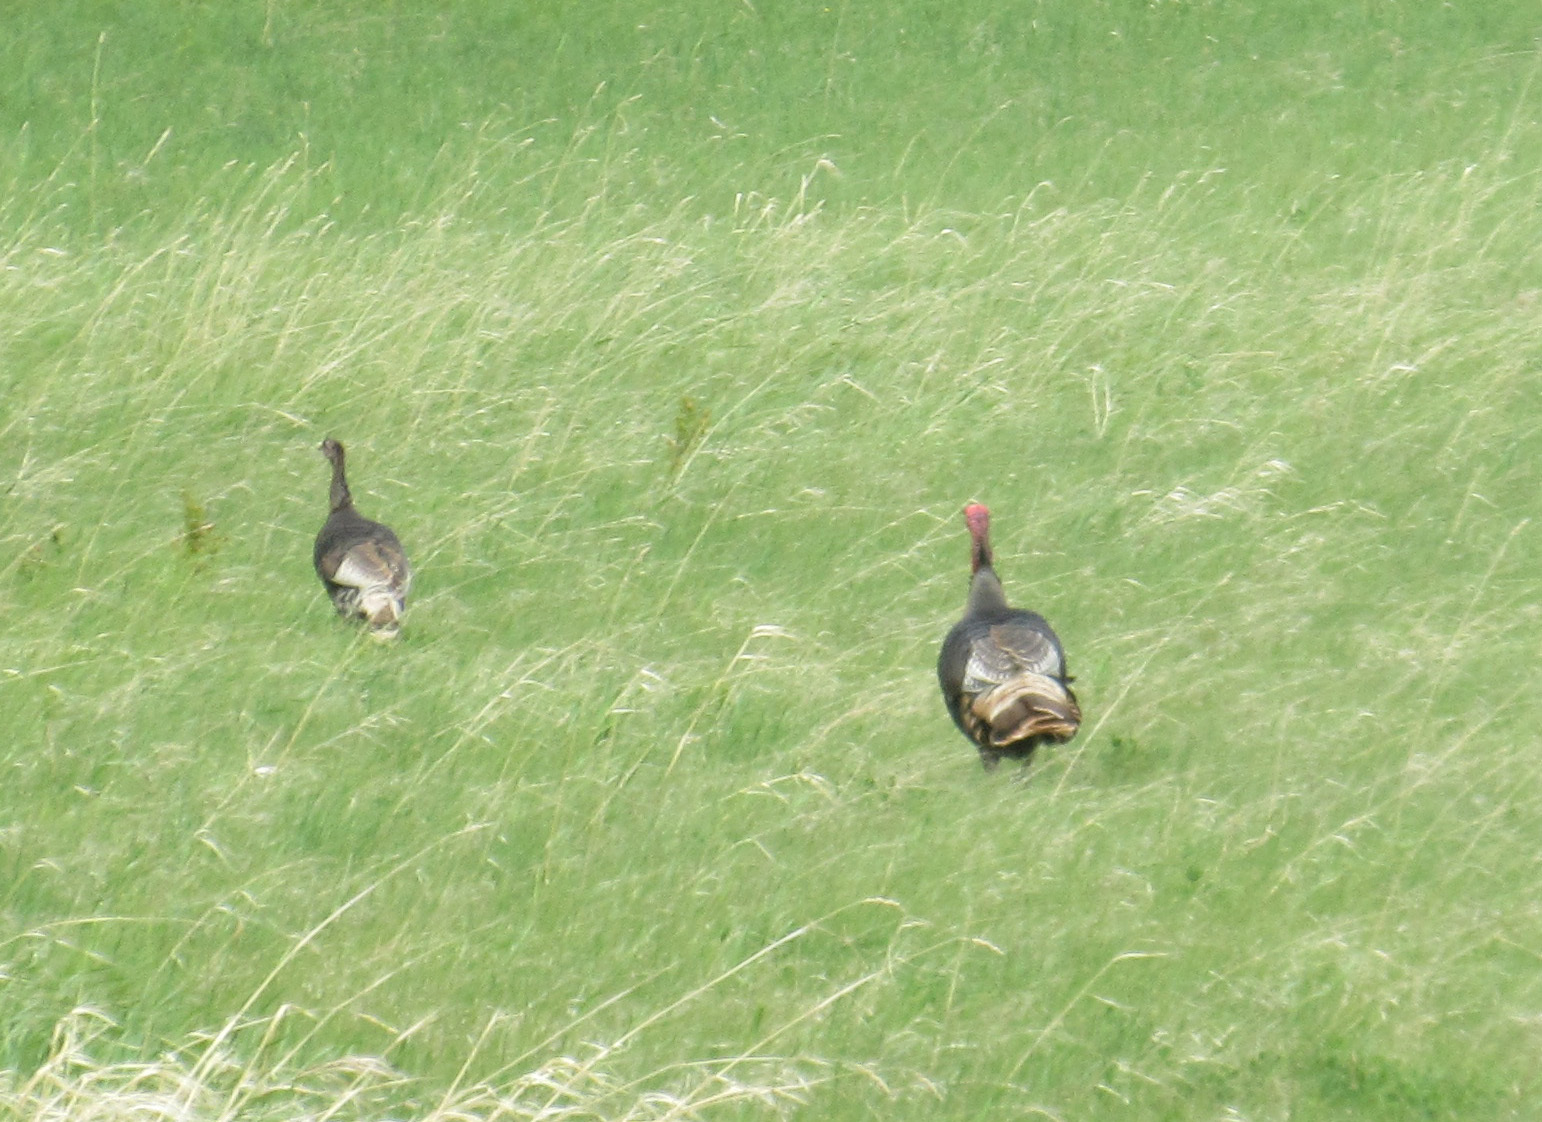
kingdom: Animalia
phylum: Chordata
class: Aves
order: Galliformes
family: Phasianidae
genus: Meleagris
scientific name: Meleagris gallopavo
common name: Wild turkey
